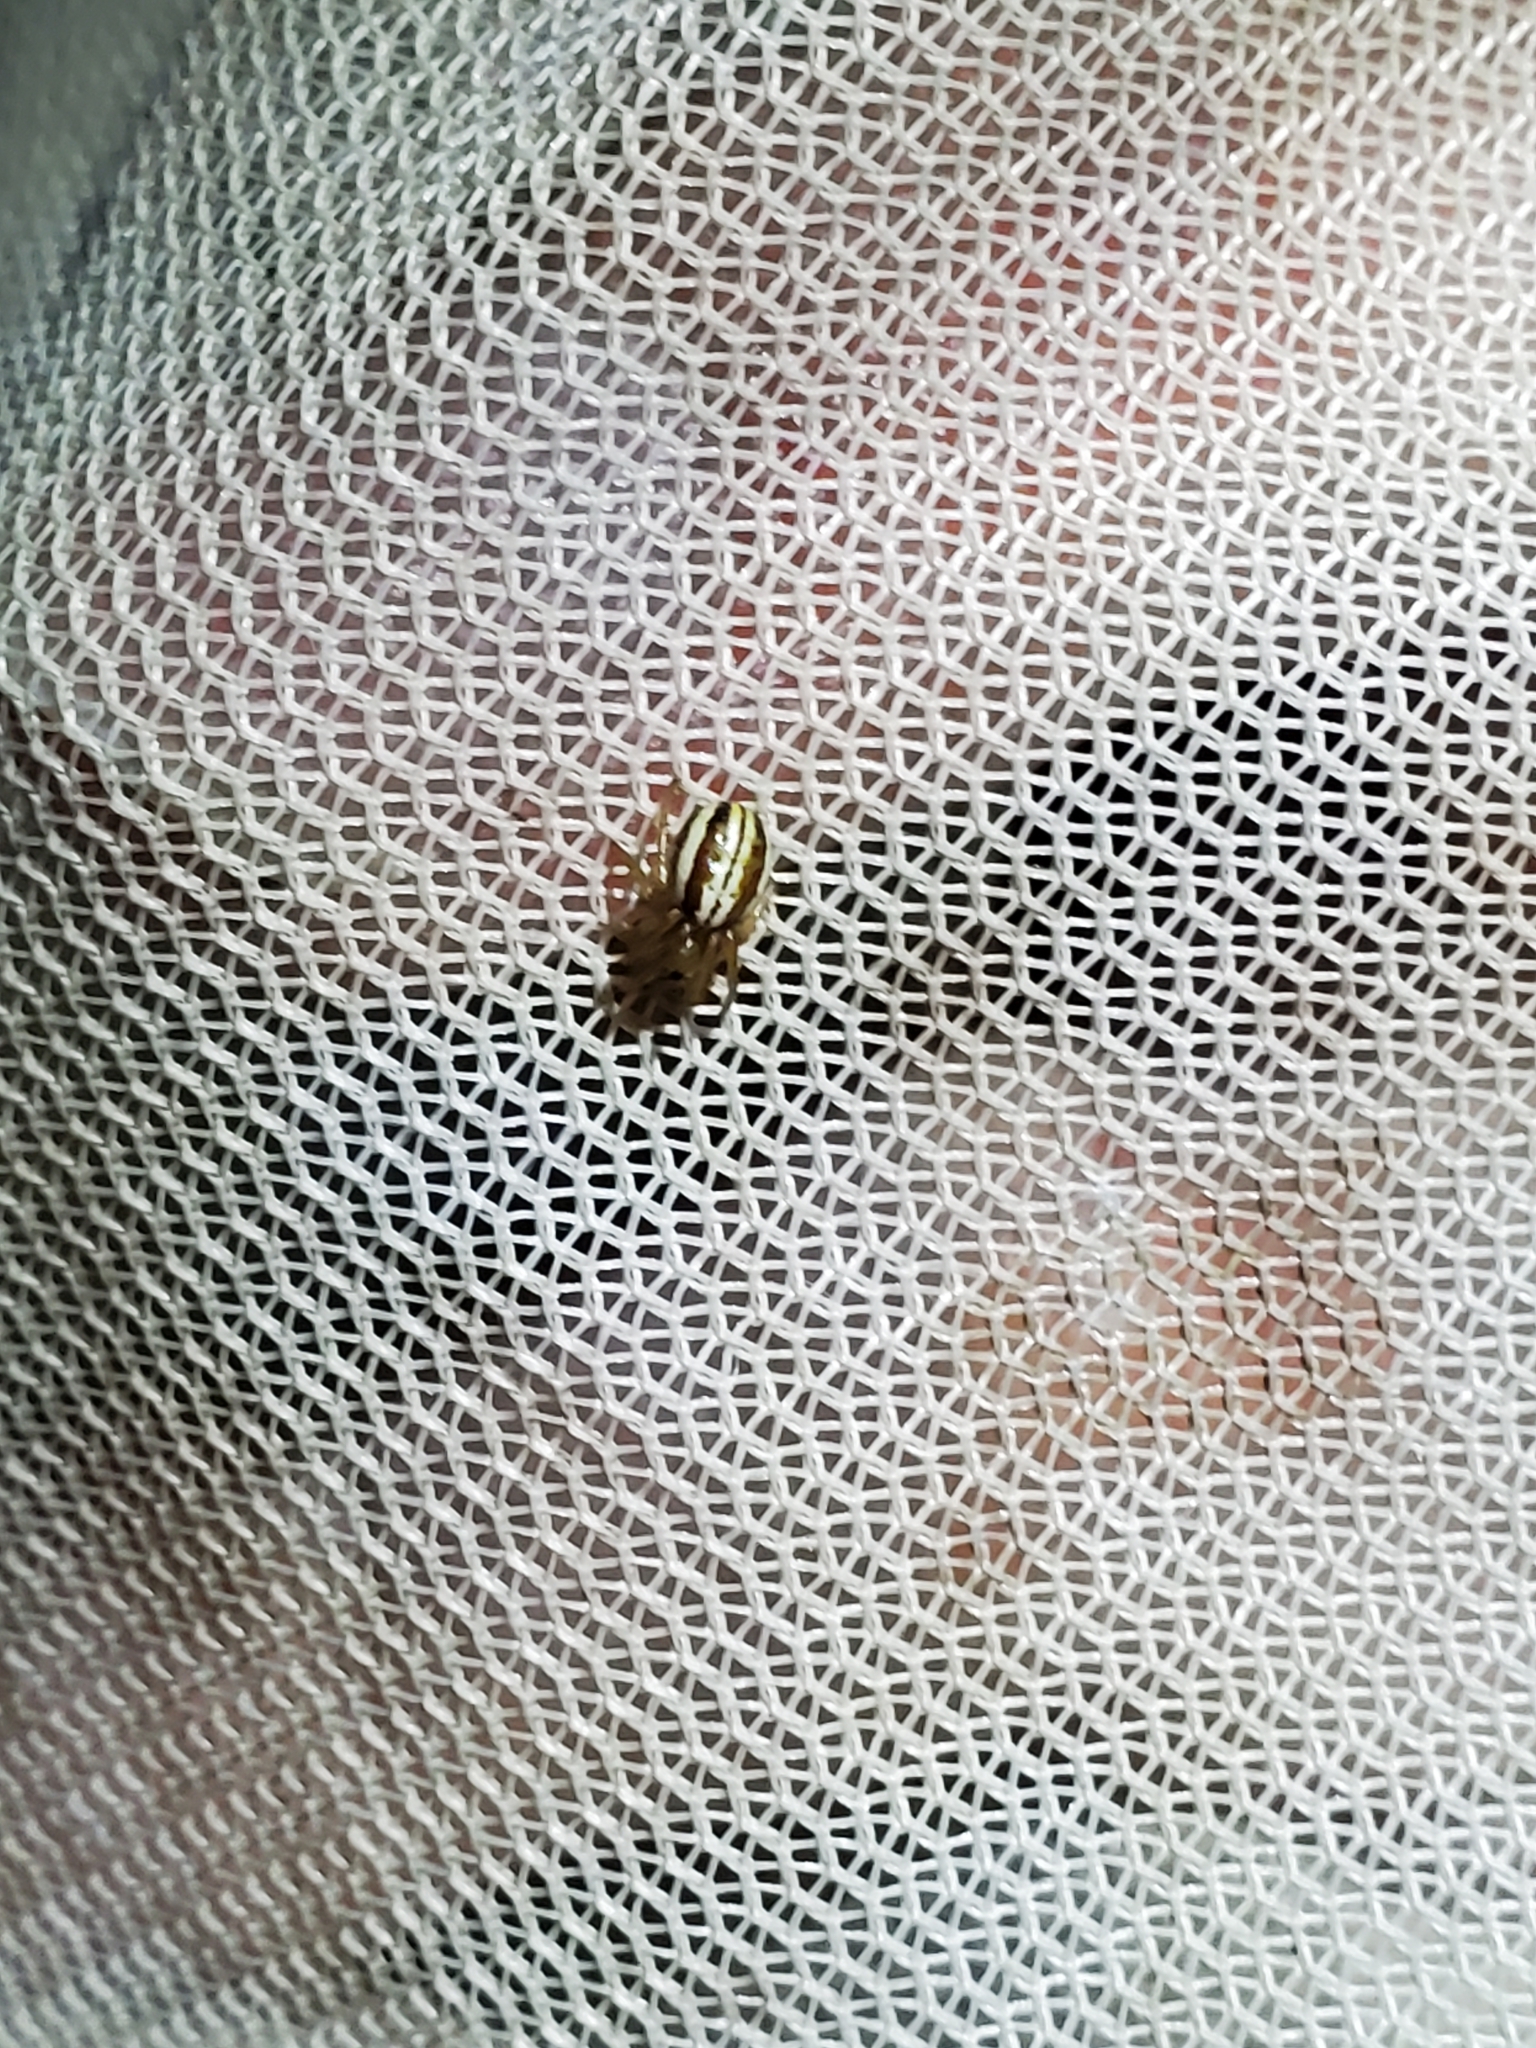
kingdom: Animalia
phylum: Arthropoda
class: Arachnida
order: Araneae
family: Araneidae
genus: Araneus
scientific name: Araneus pratensis
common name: Openfield orbweaver
